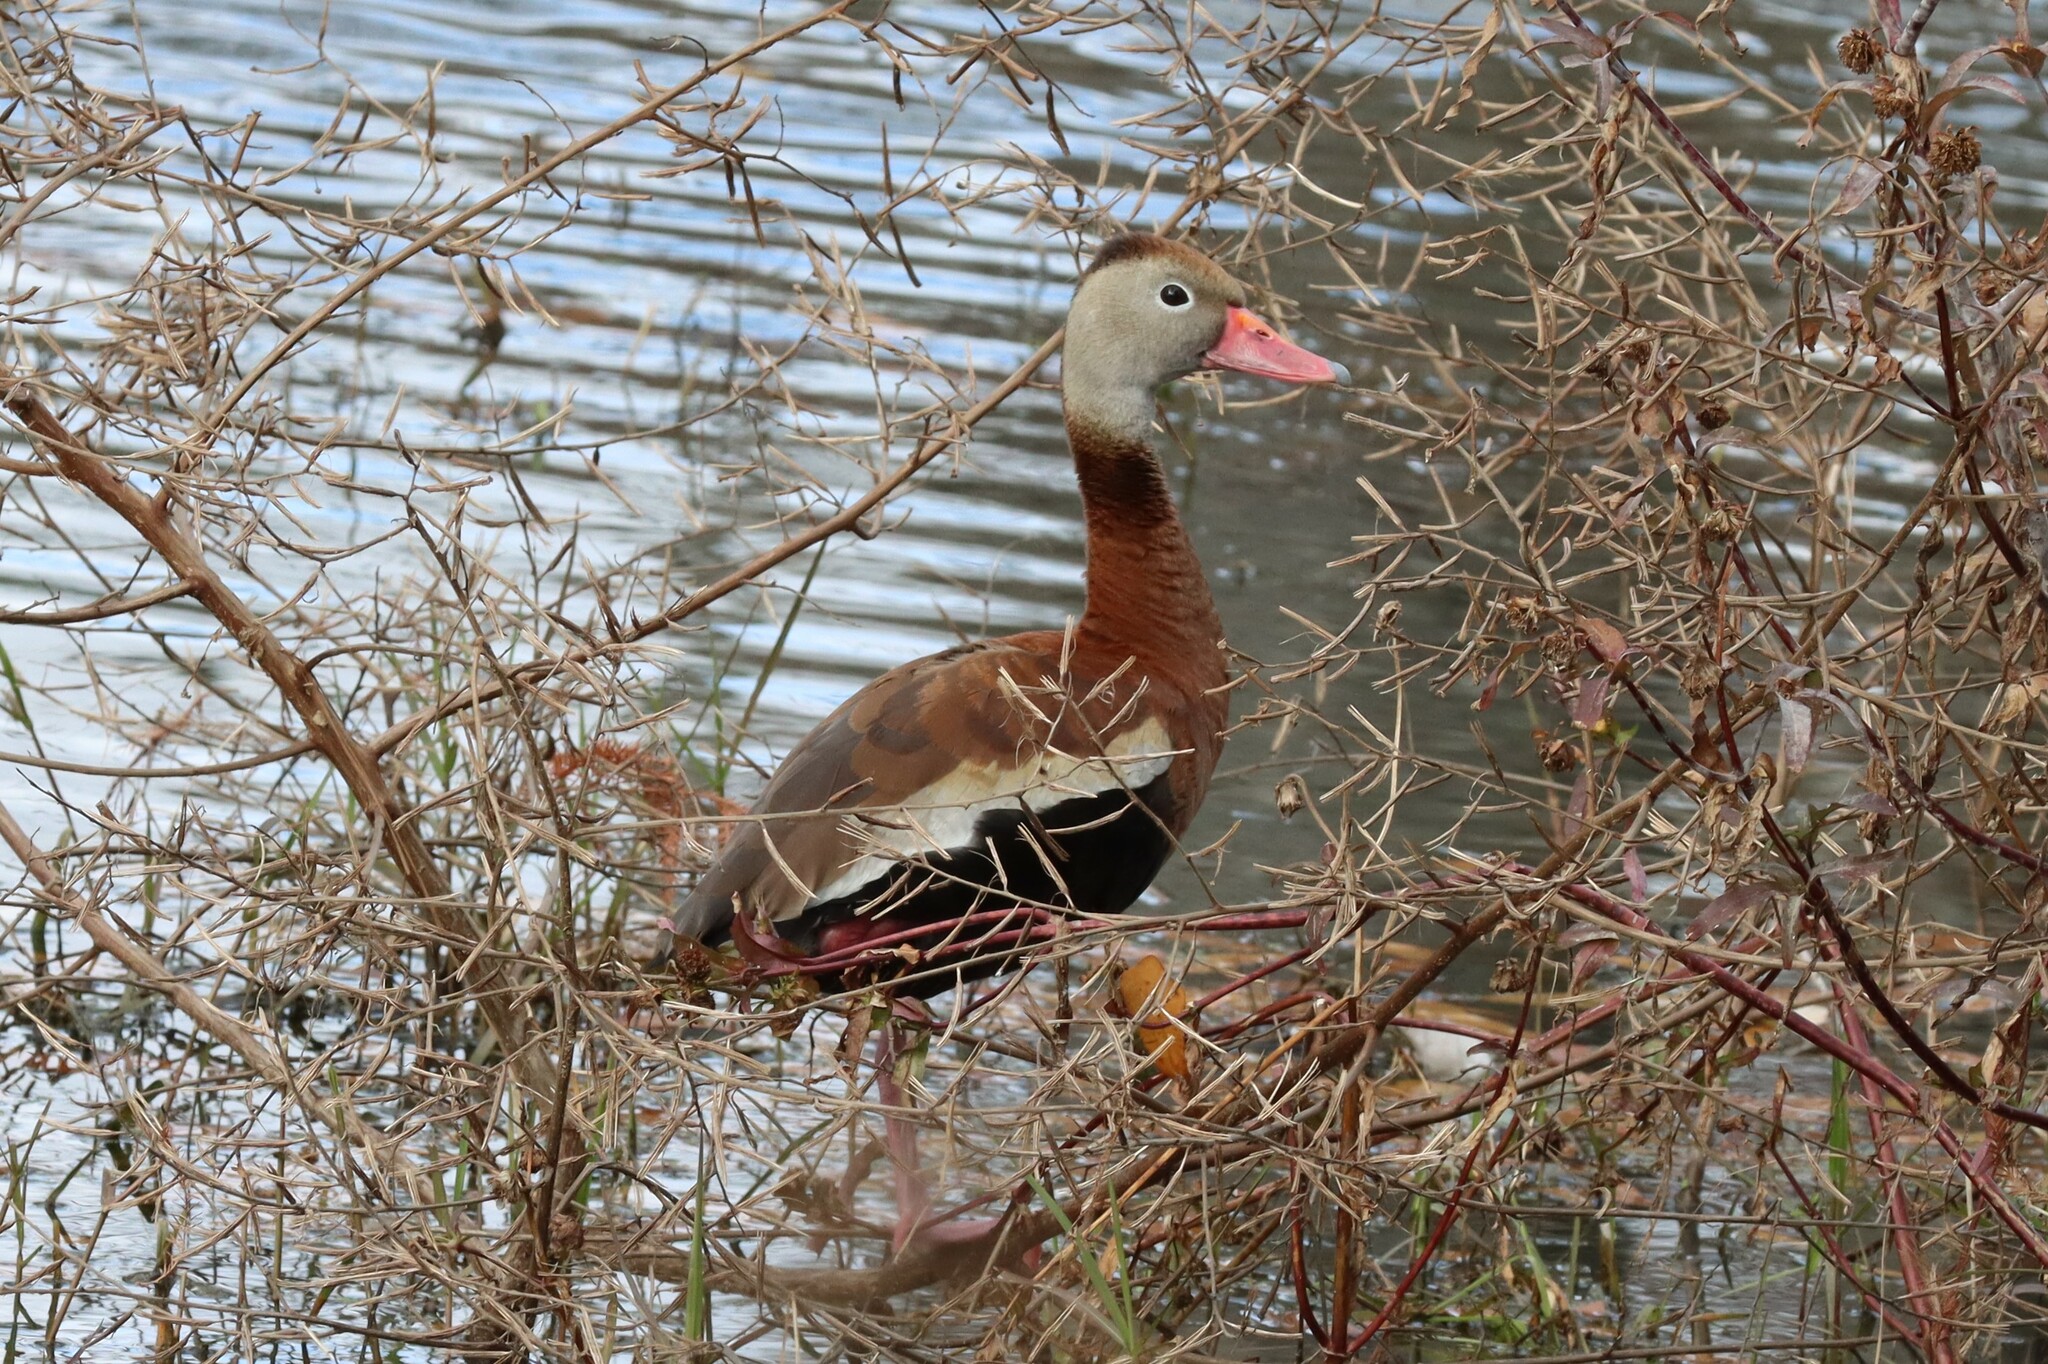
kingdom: Animalia
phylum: Chordata
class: Aves
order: Anseriformes
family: Anatidae
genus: Dendrocygna
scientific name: Dendrocygna autumnalis
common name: Black-bellied whistling duck
